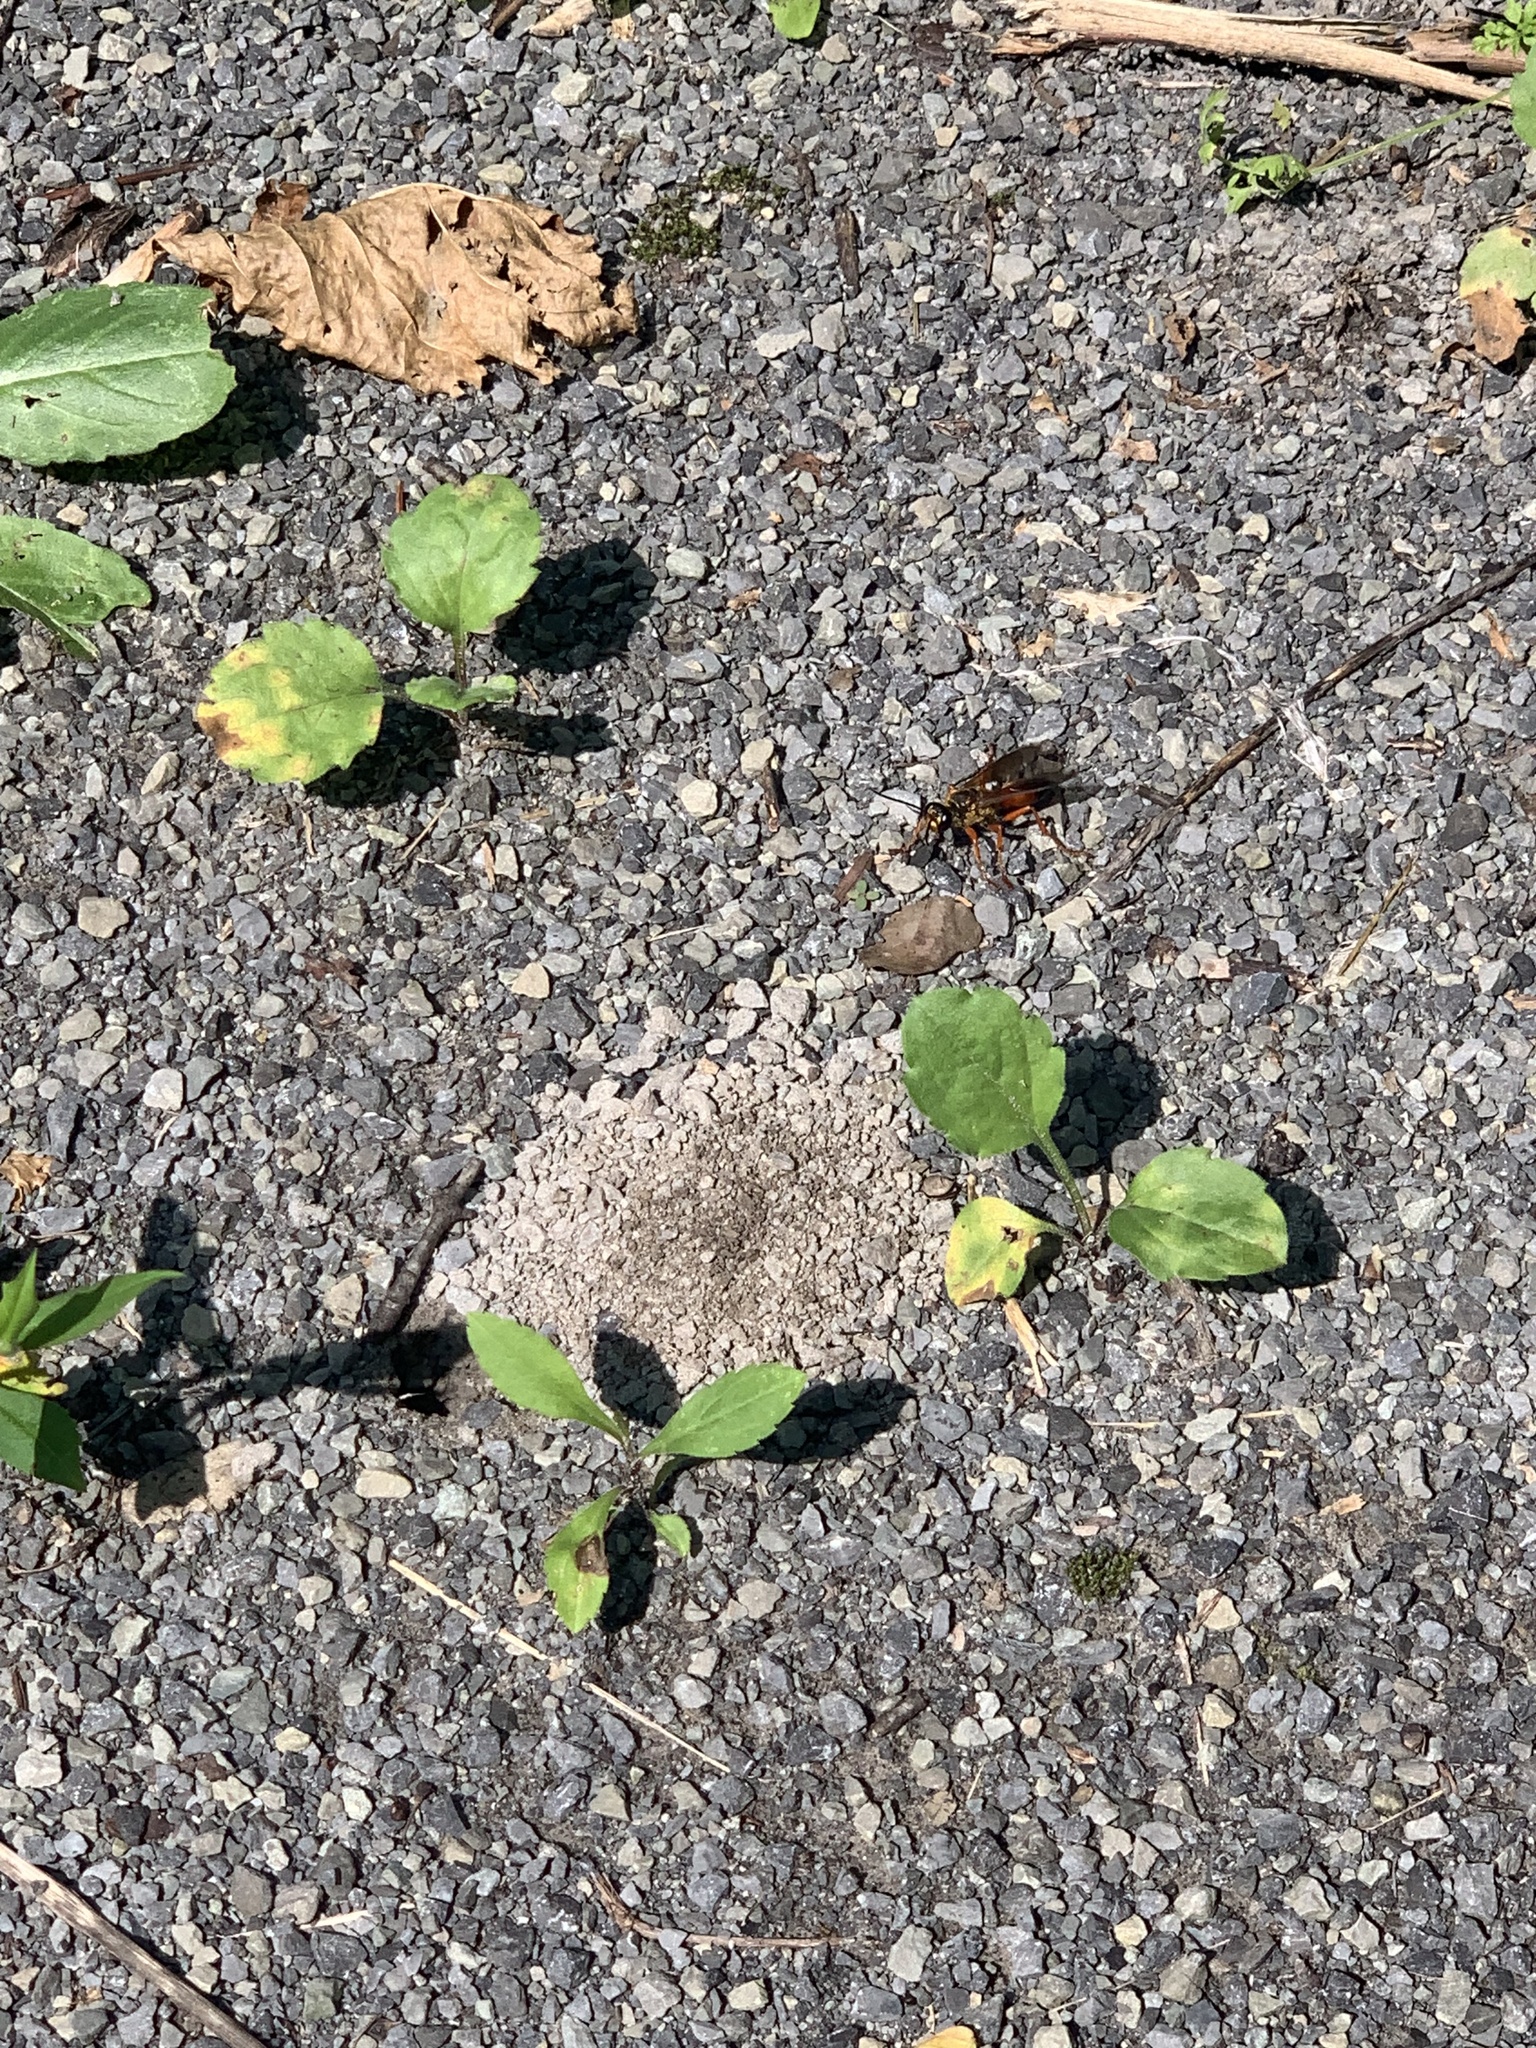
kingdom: Animalia
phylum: Arthropoda
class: Insecta
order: Hymenoptera
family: Sphecidae
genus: Sphex
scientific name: Sphex ichneumoneus
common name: Great golden digger wasp
